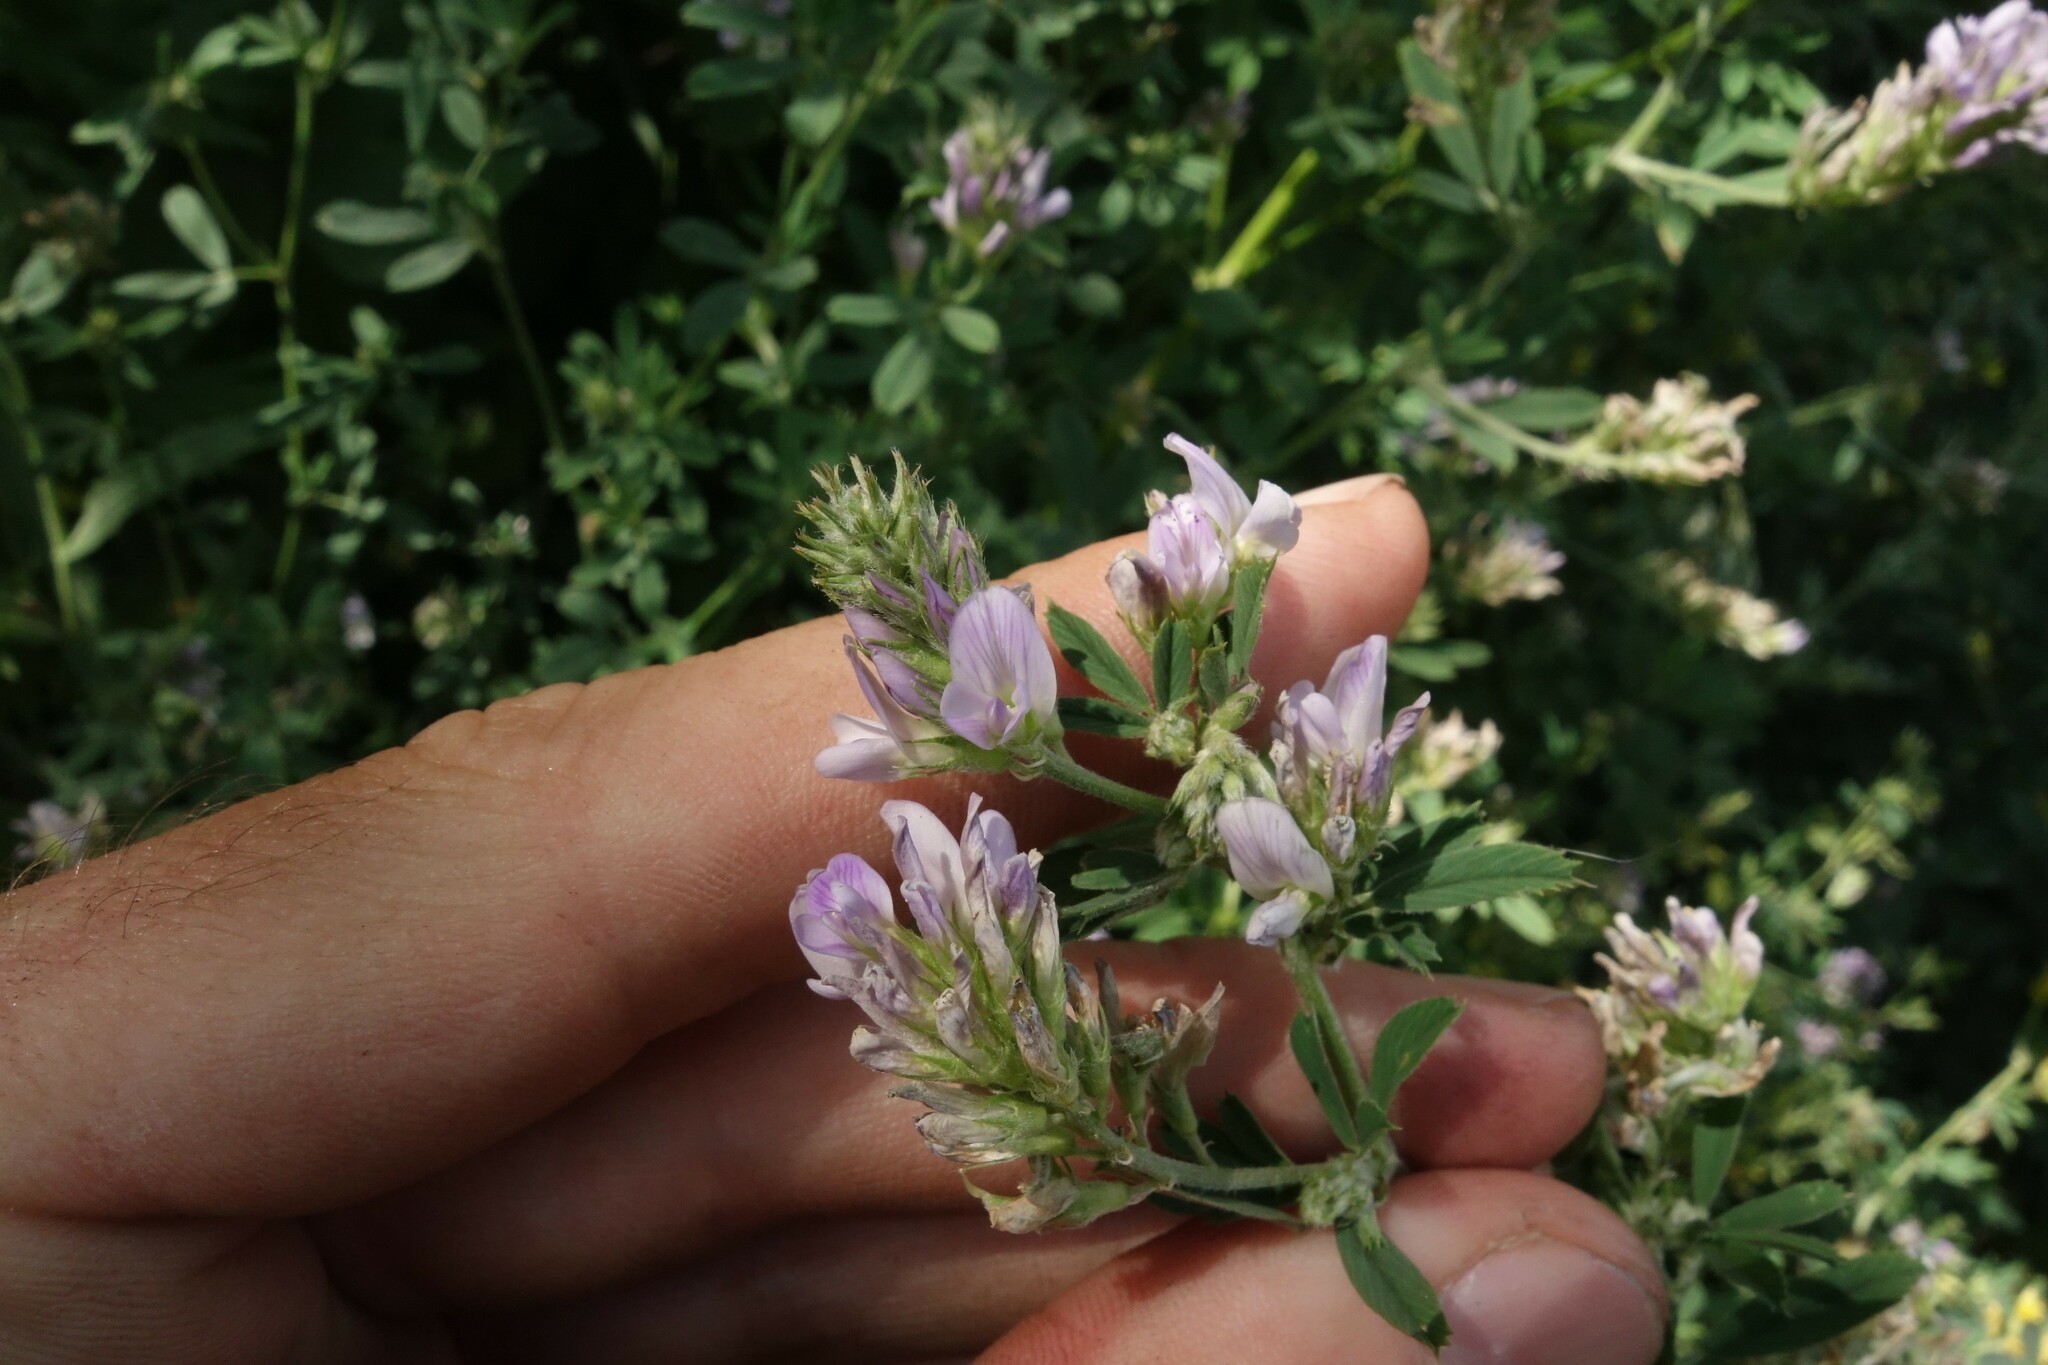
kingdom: Plantae
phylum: Tracheophyta
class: Magnoliopsida
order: Fabales
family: Fabaceae
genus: Medicago
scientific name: Medicago varia
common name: Sand lucerne
